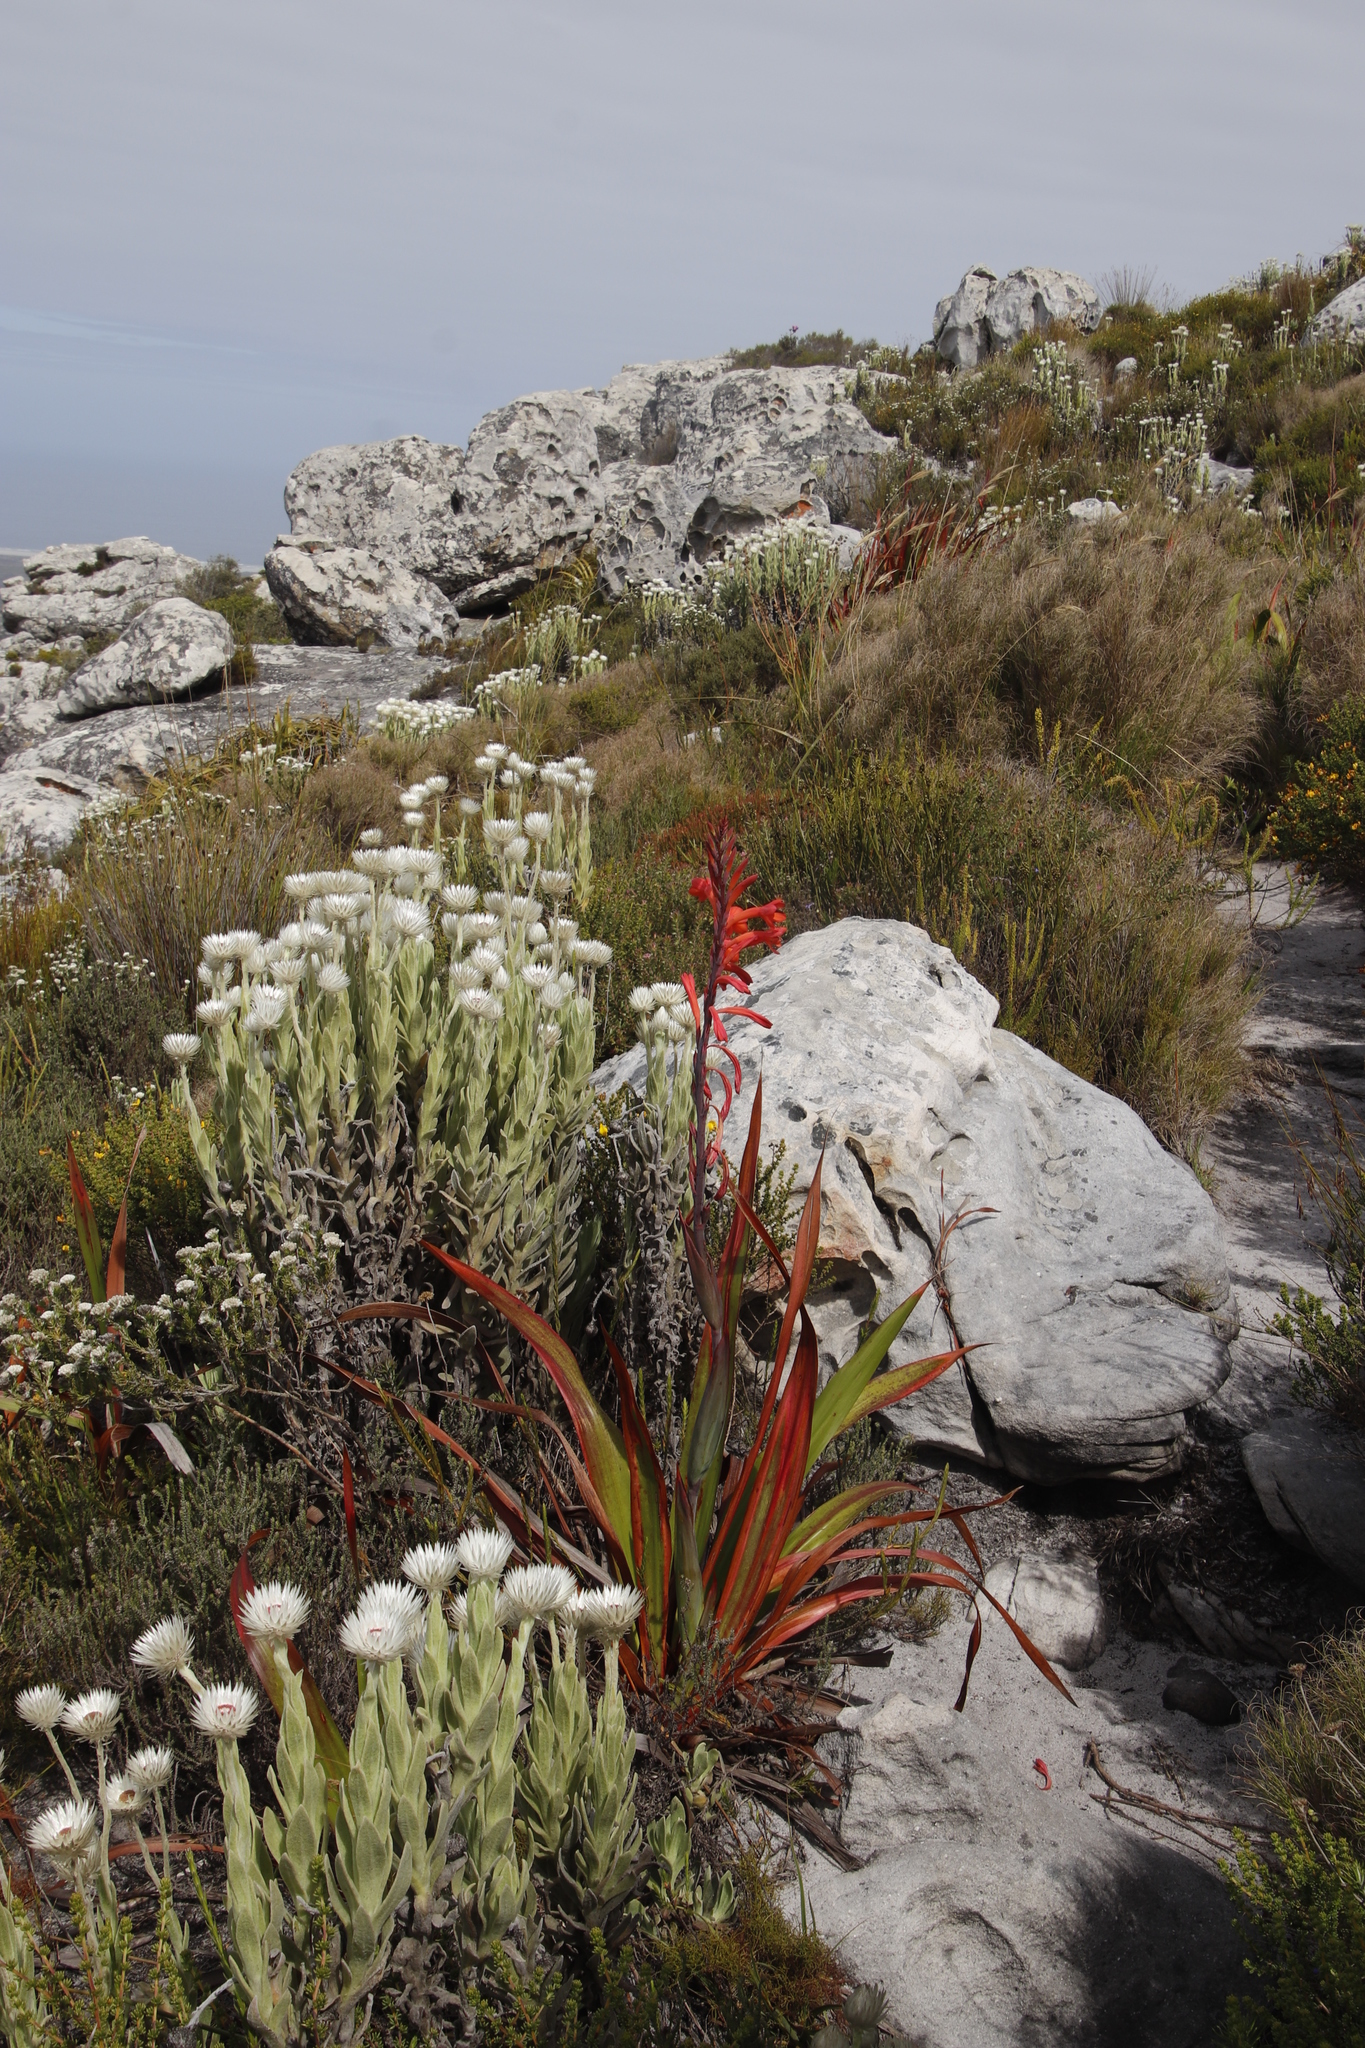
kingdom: Plantae
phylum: Tracheophyta
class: Liliopsida
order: Asparagales
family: Iridaceae
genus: Watsonia
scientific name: Watsonia tabularis
